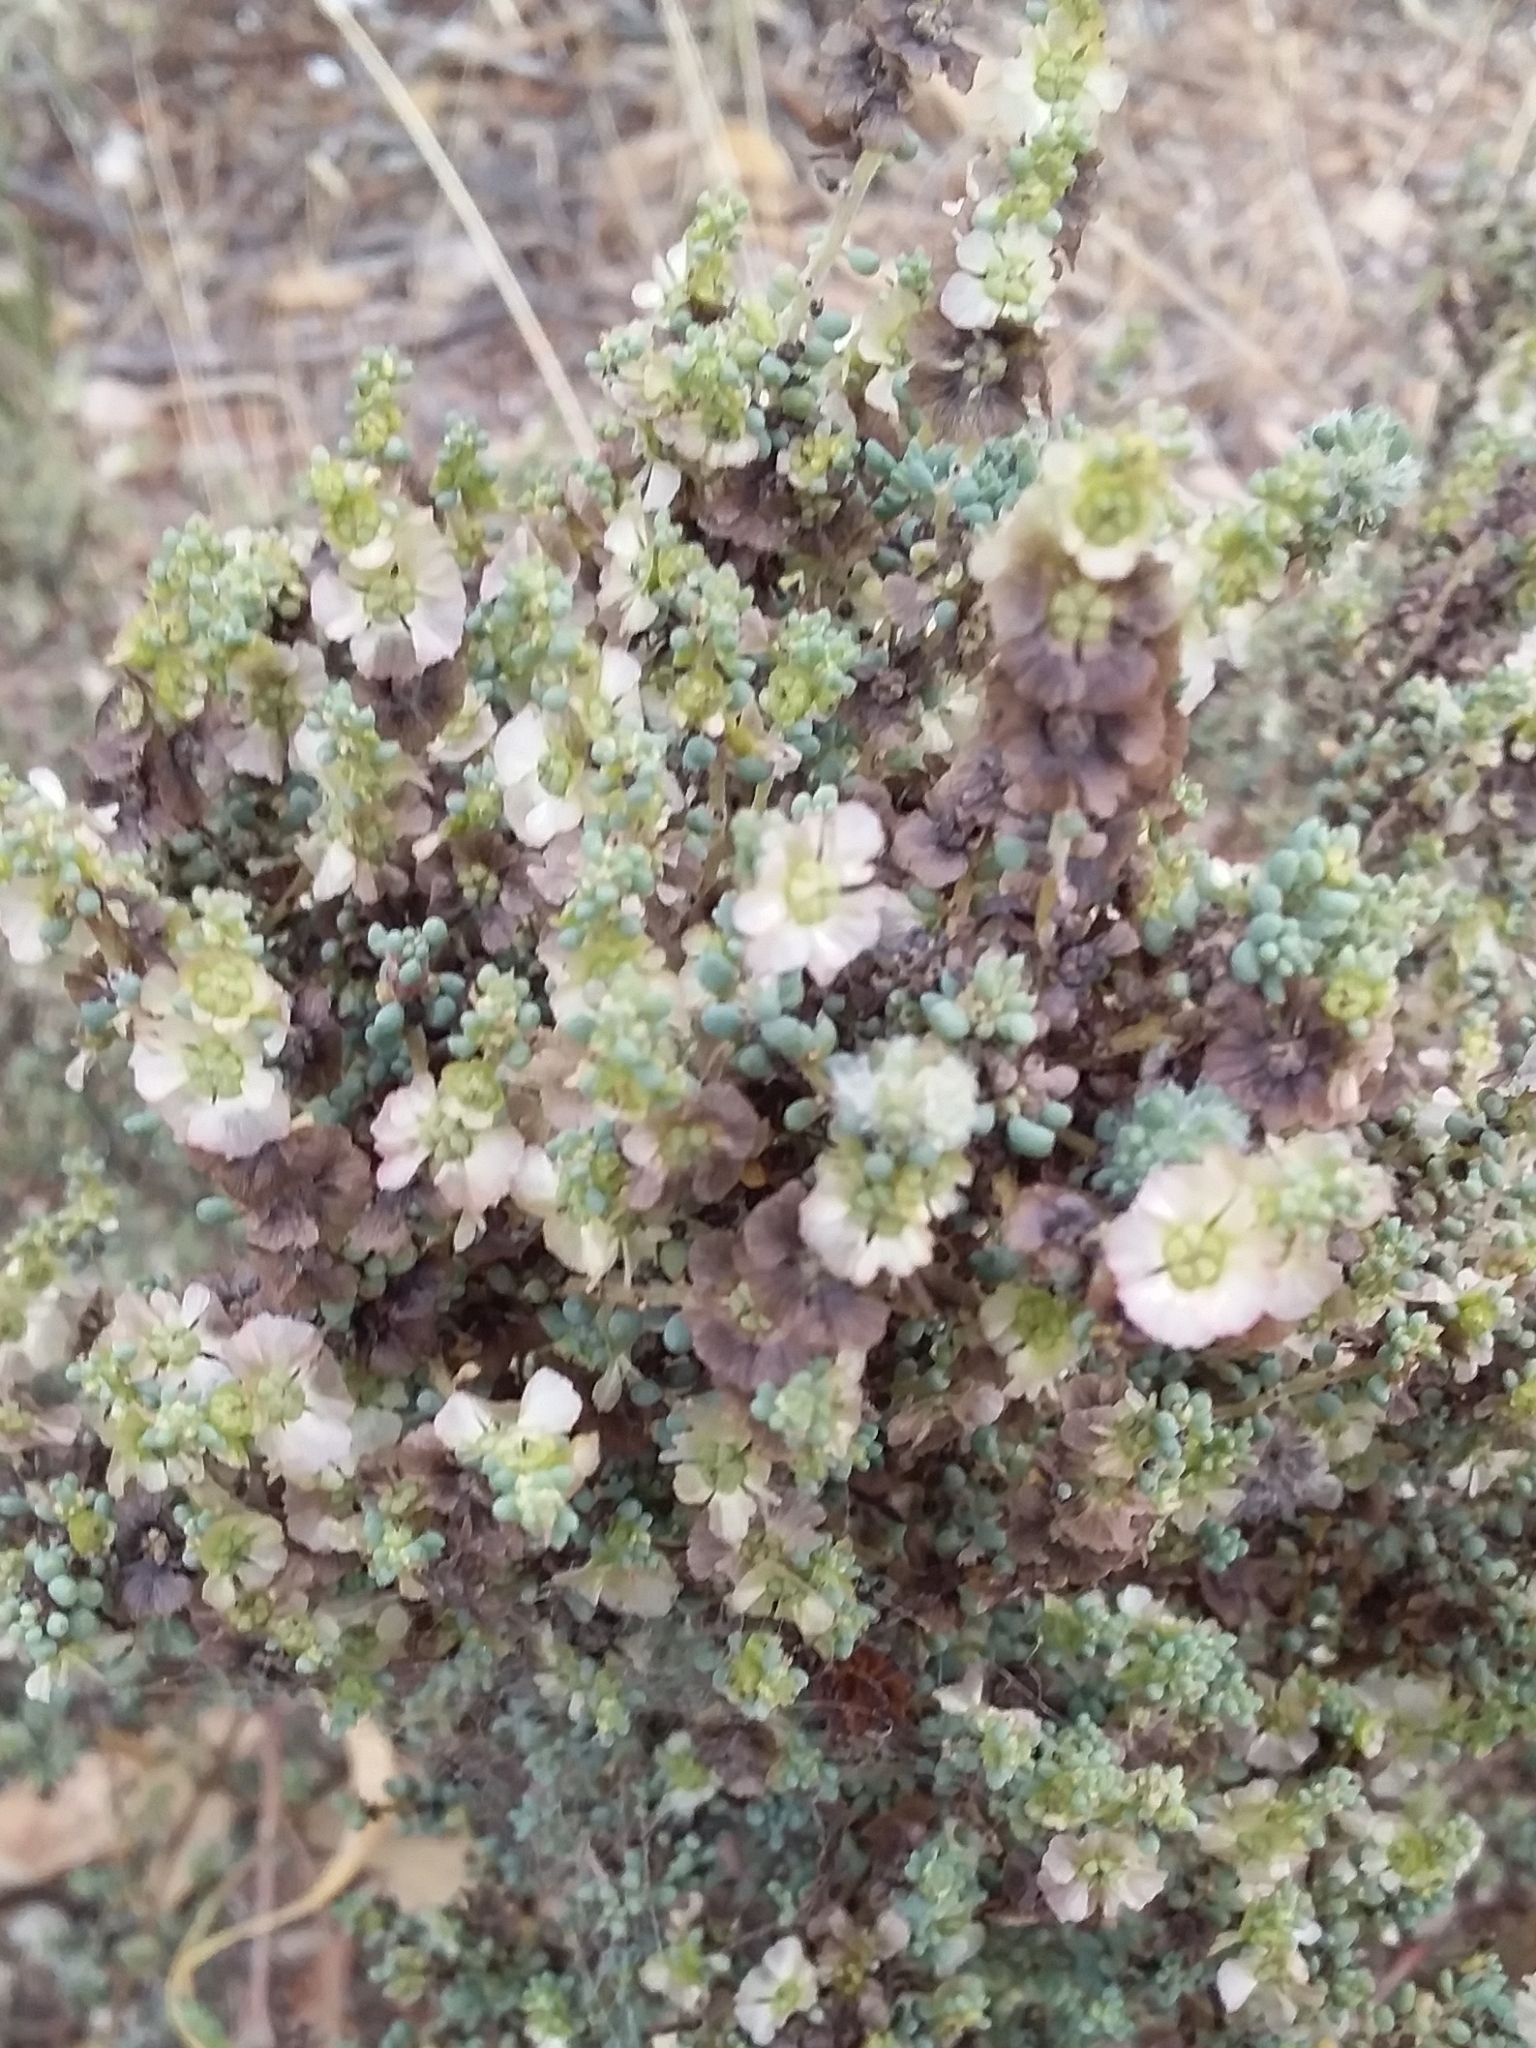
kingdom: Plantae
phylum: Tracheophyta
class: Magnoliopsida
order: Caryophyllales
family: Amaranthaceae
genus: Maireana
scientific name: Maireana brevifolia
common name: Eastern cottonbush
